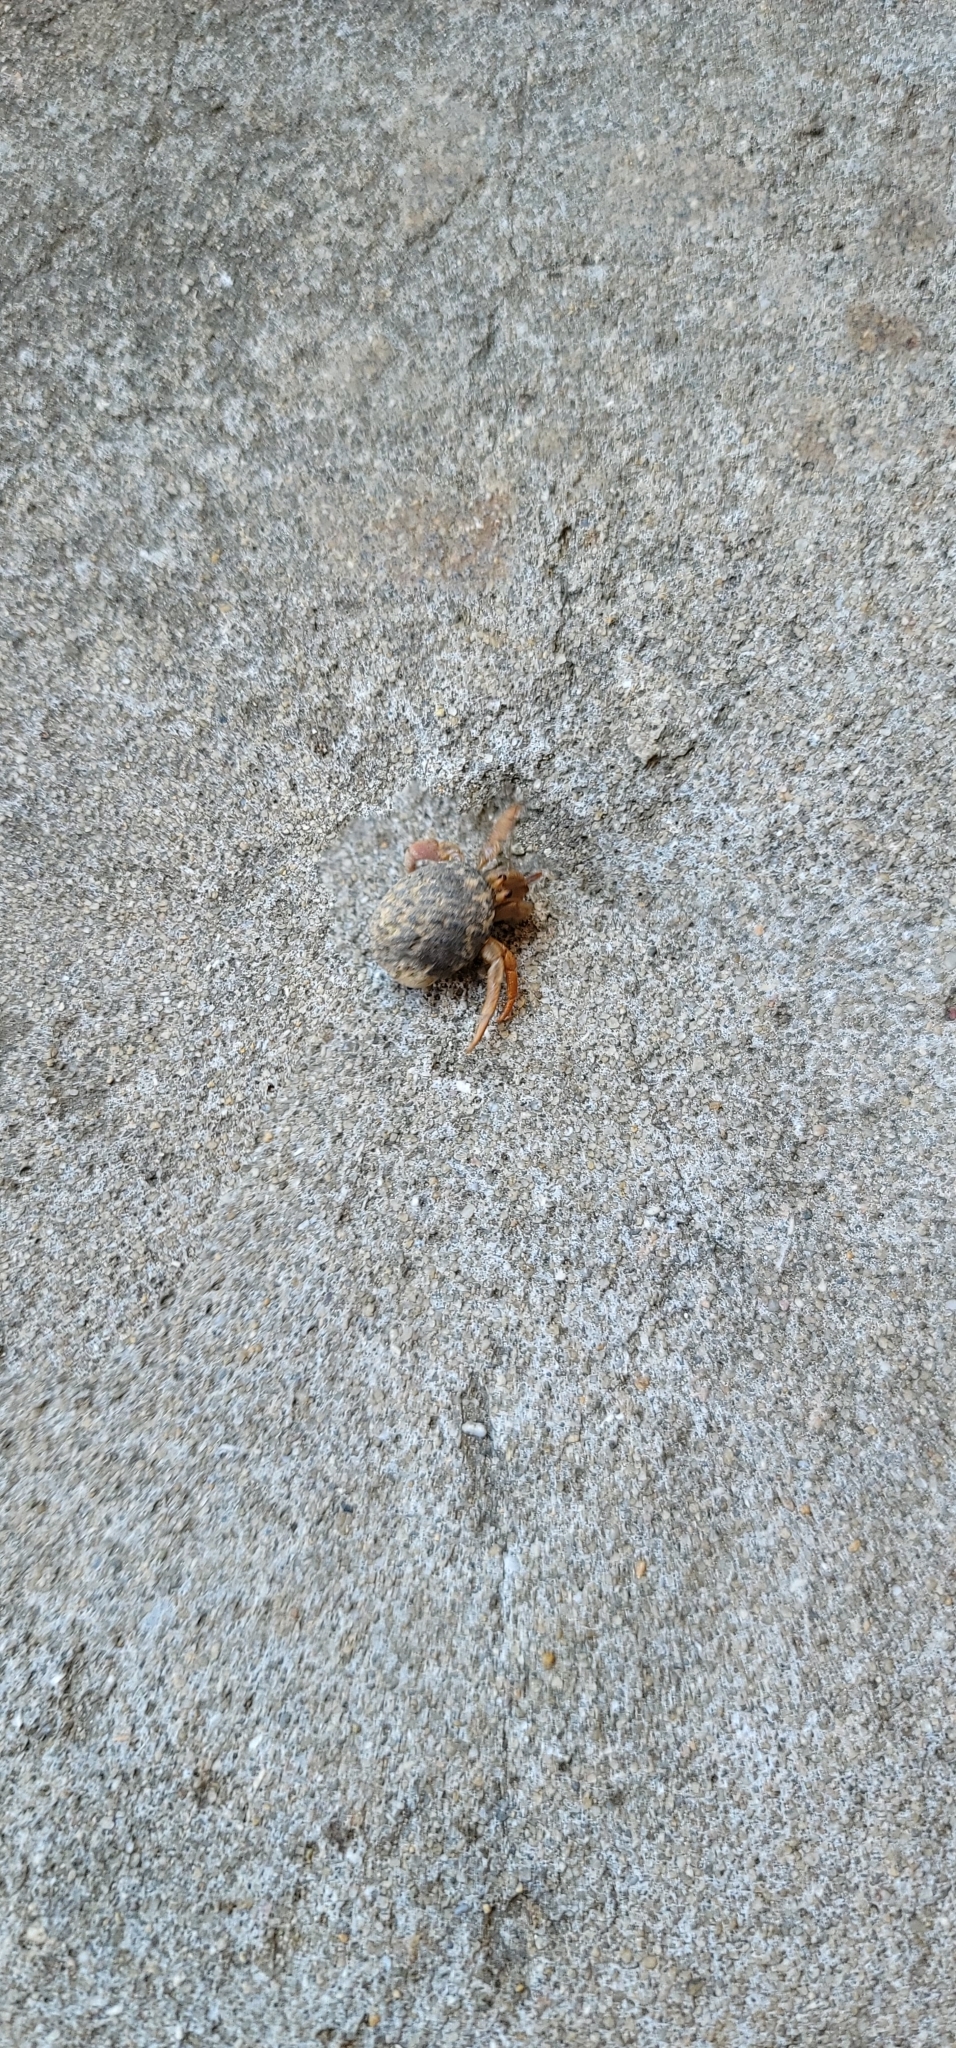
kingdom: Animalia
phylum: Arthropoda
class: Malacostraca
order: Decapoda
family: Coenobitidae
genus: Coenobita
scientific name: Coenobita clypeatus
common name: Caribbean hermit crab
